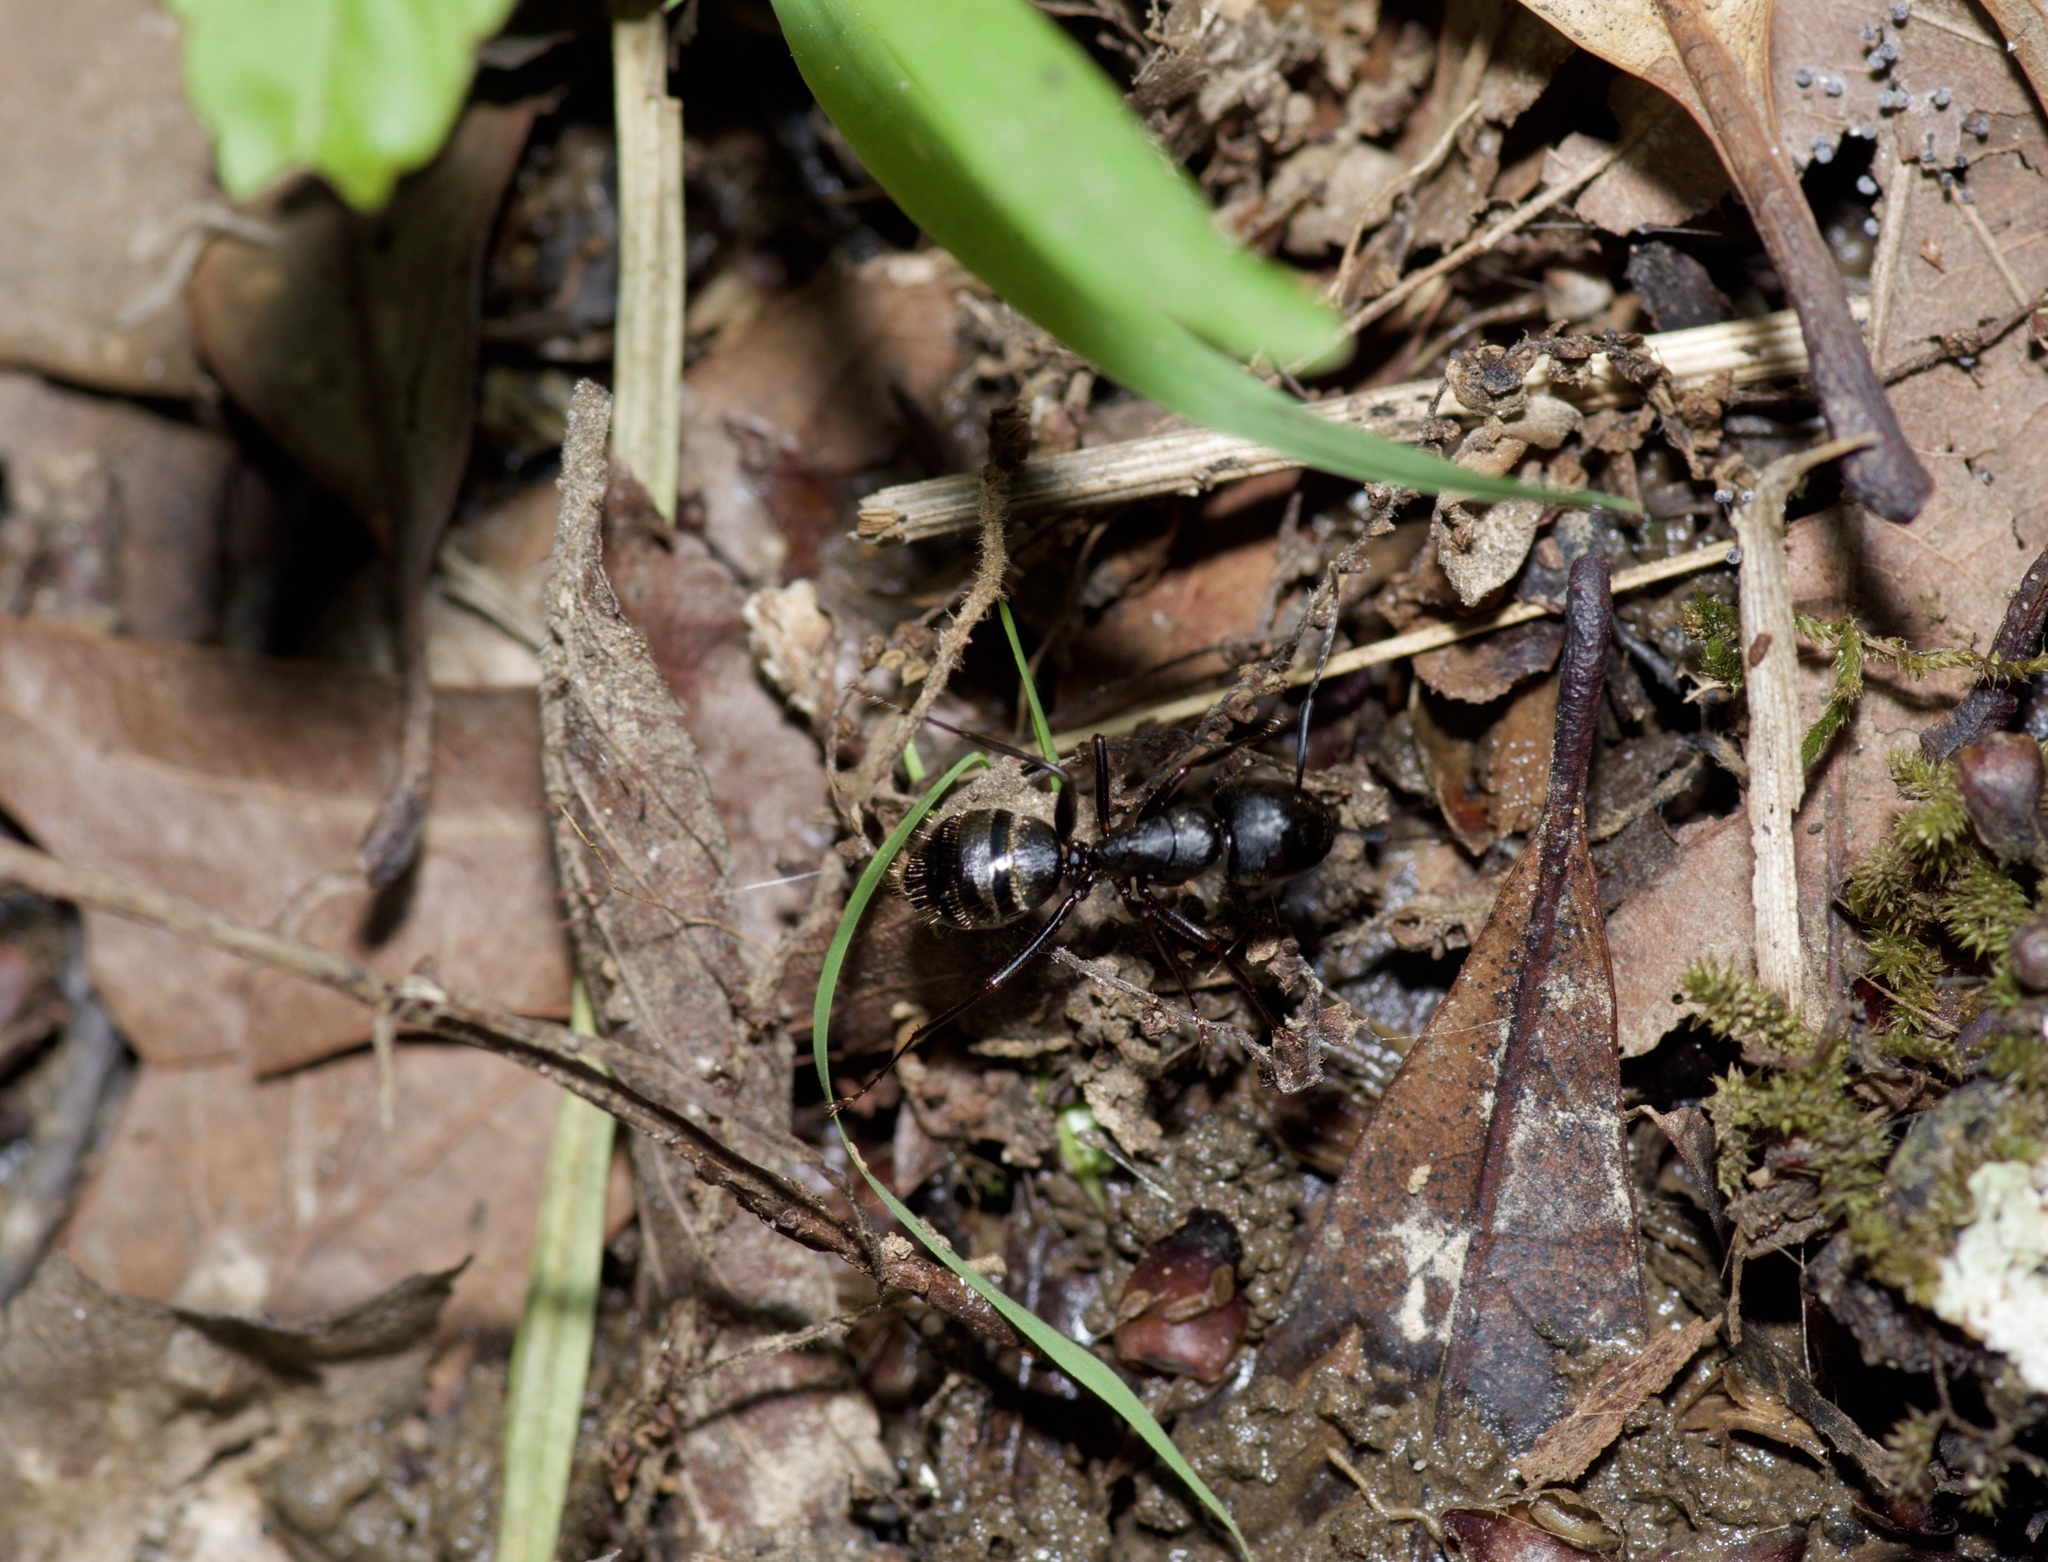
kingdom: Animalia
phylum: Arthropoda
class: Insecta
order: Hymenoptera
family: Formicidae
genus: Camponotus
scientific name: Camponotus pennsylvanicus
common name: Black carpenter ant
